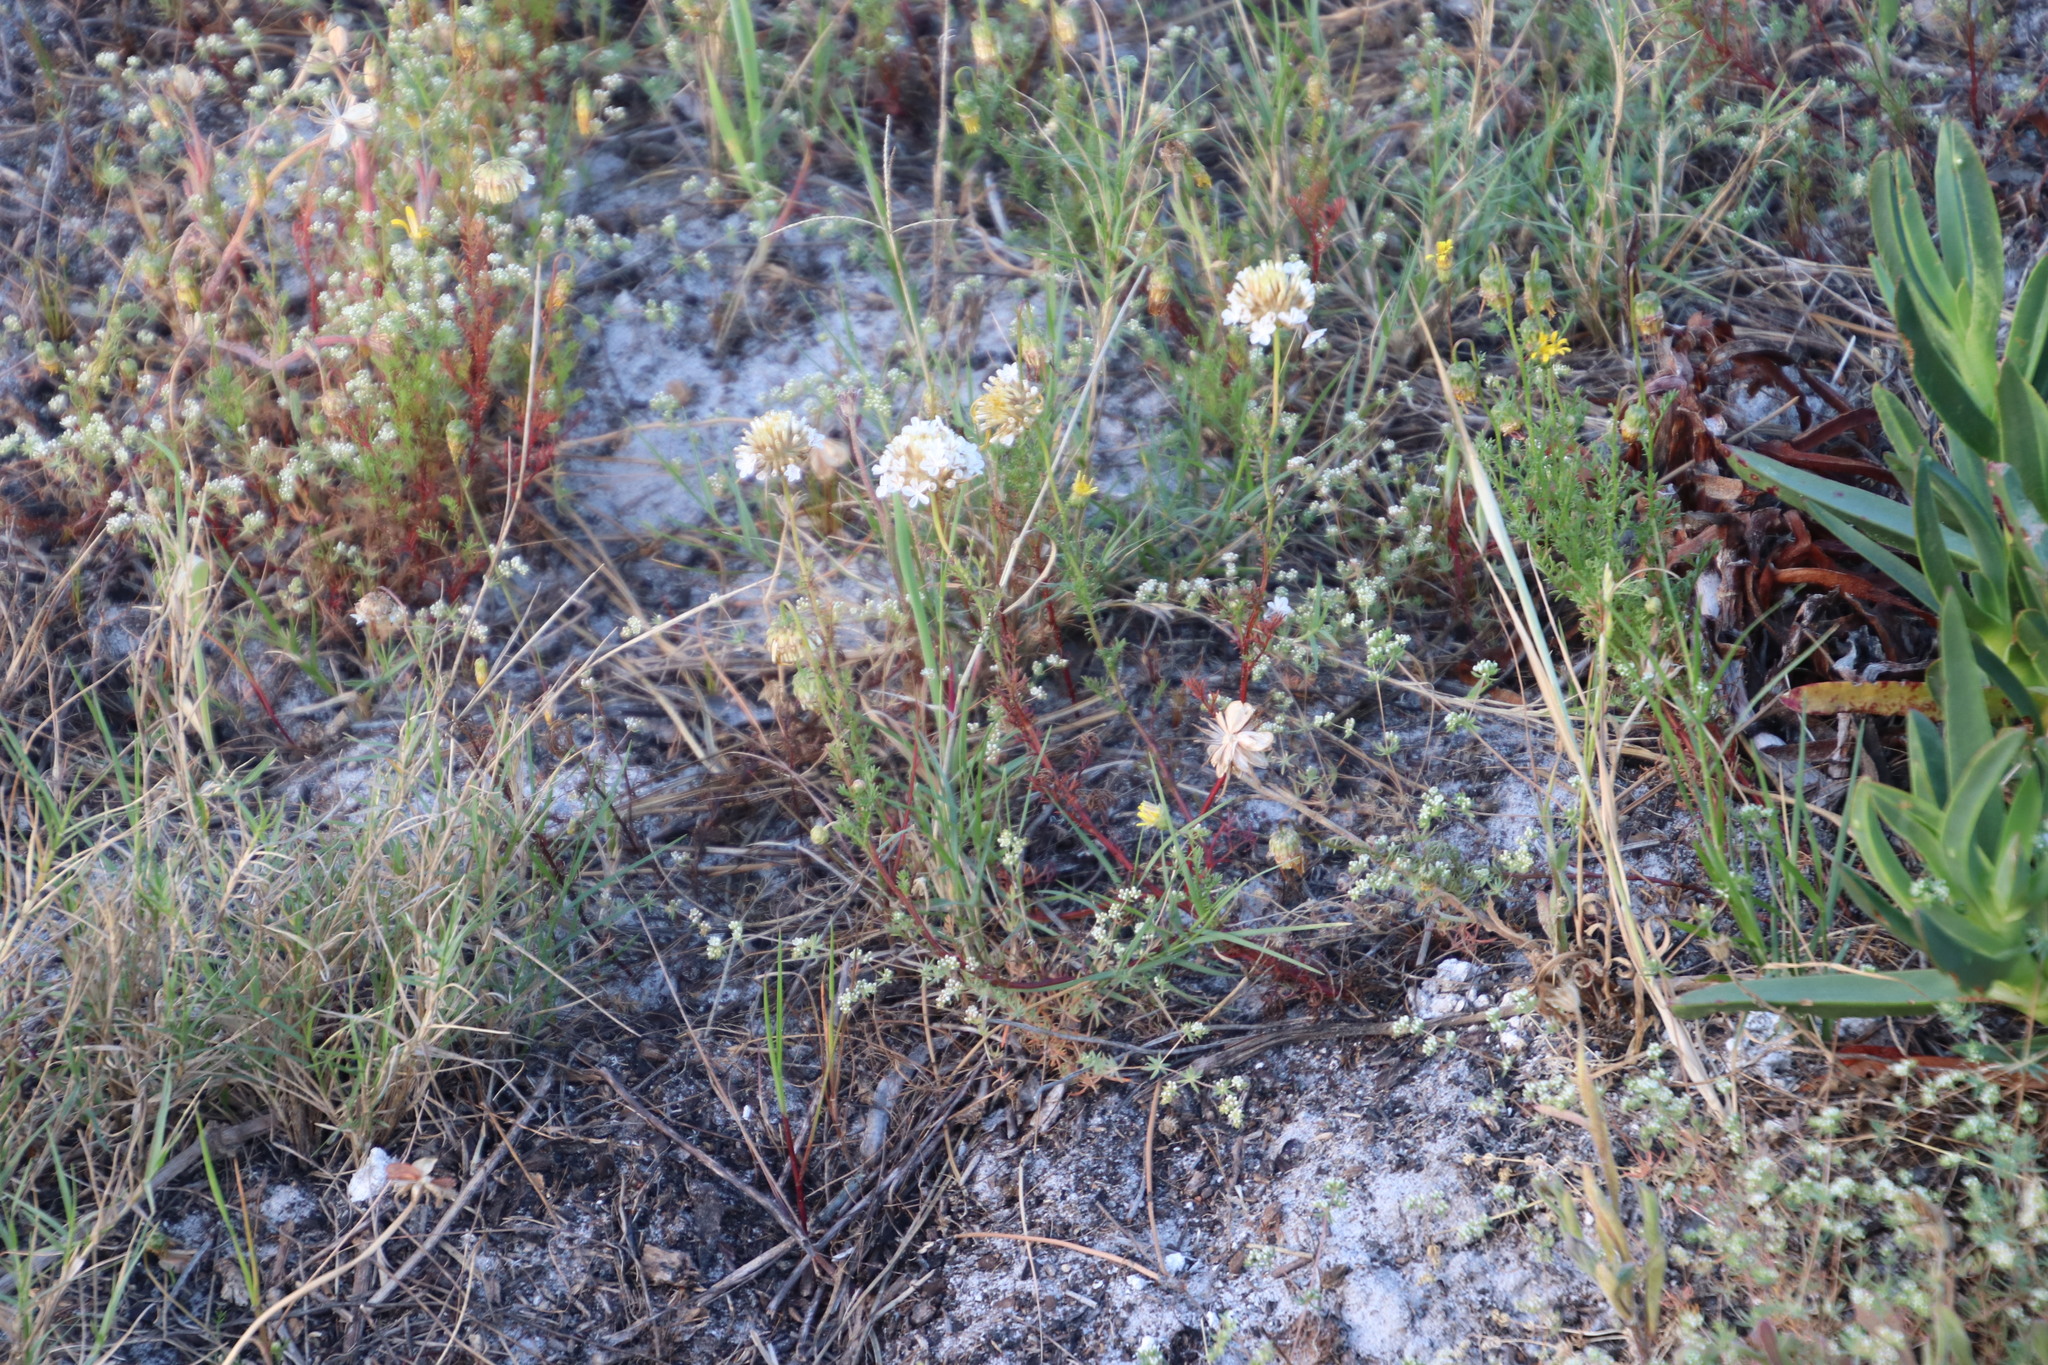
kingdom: Plantae
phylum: Tracheophyta
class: Magnoliopsida
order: Asterales
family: Asteraceae
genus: Ursinia
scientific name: Ursinia anthemoides
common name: Ursinia
